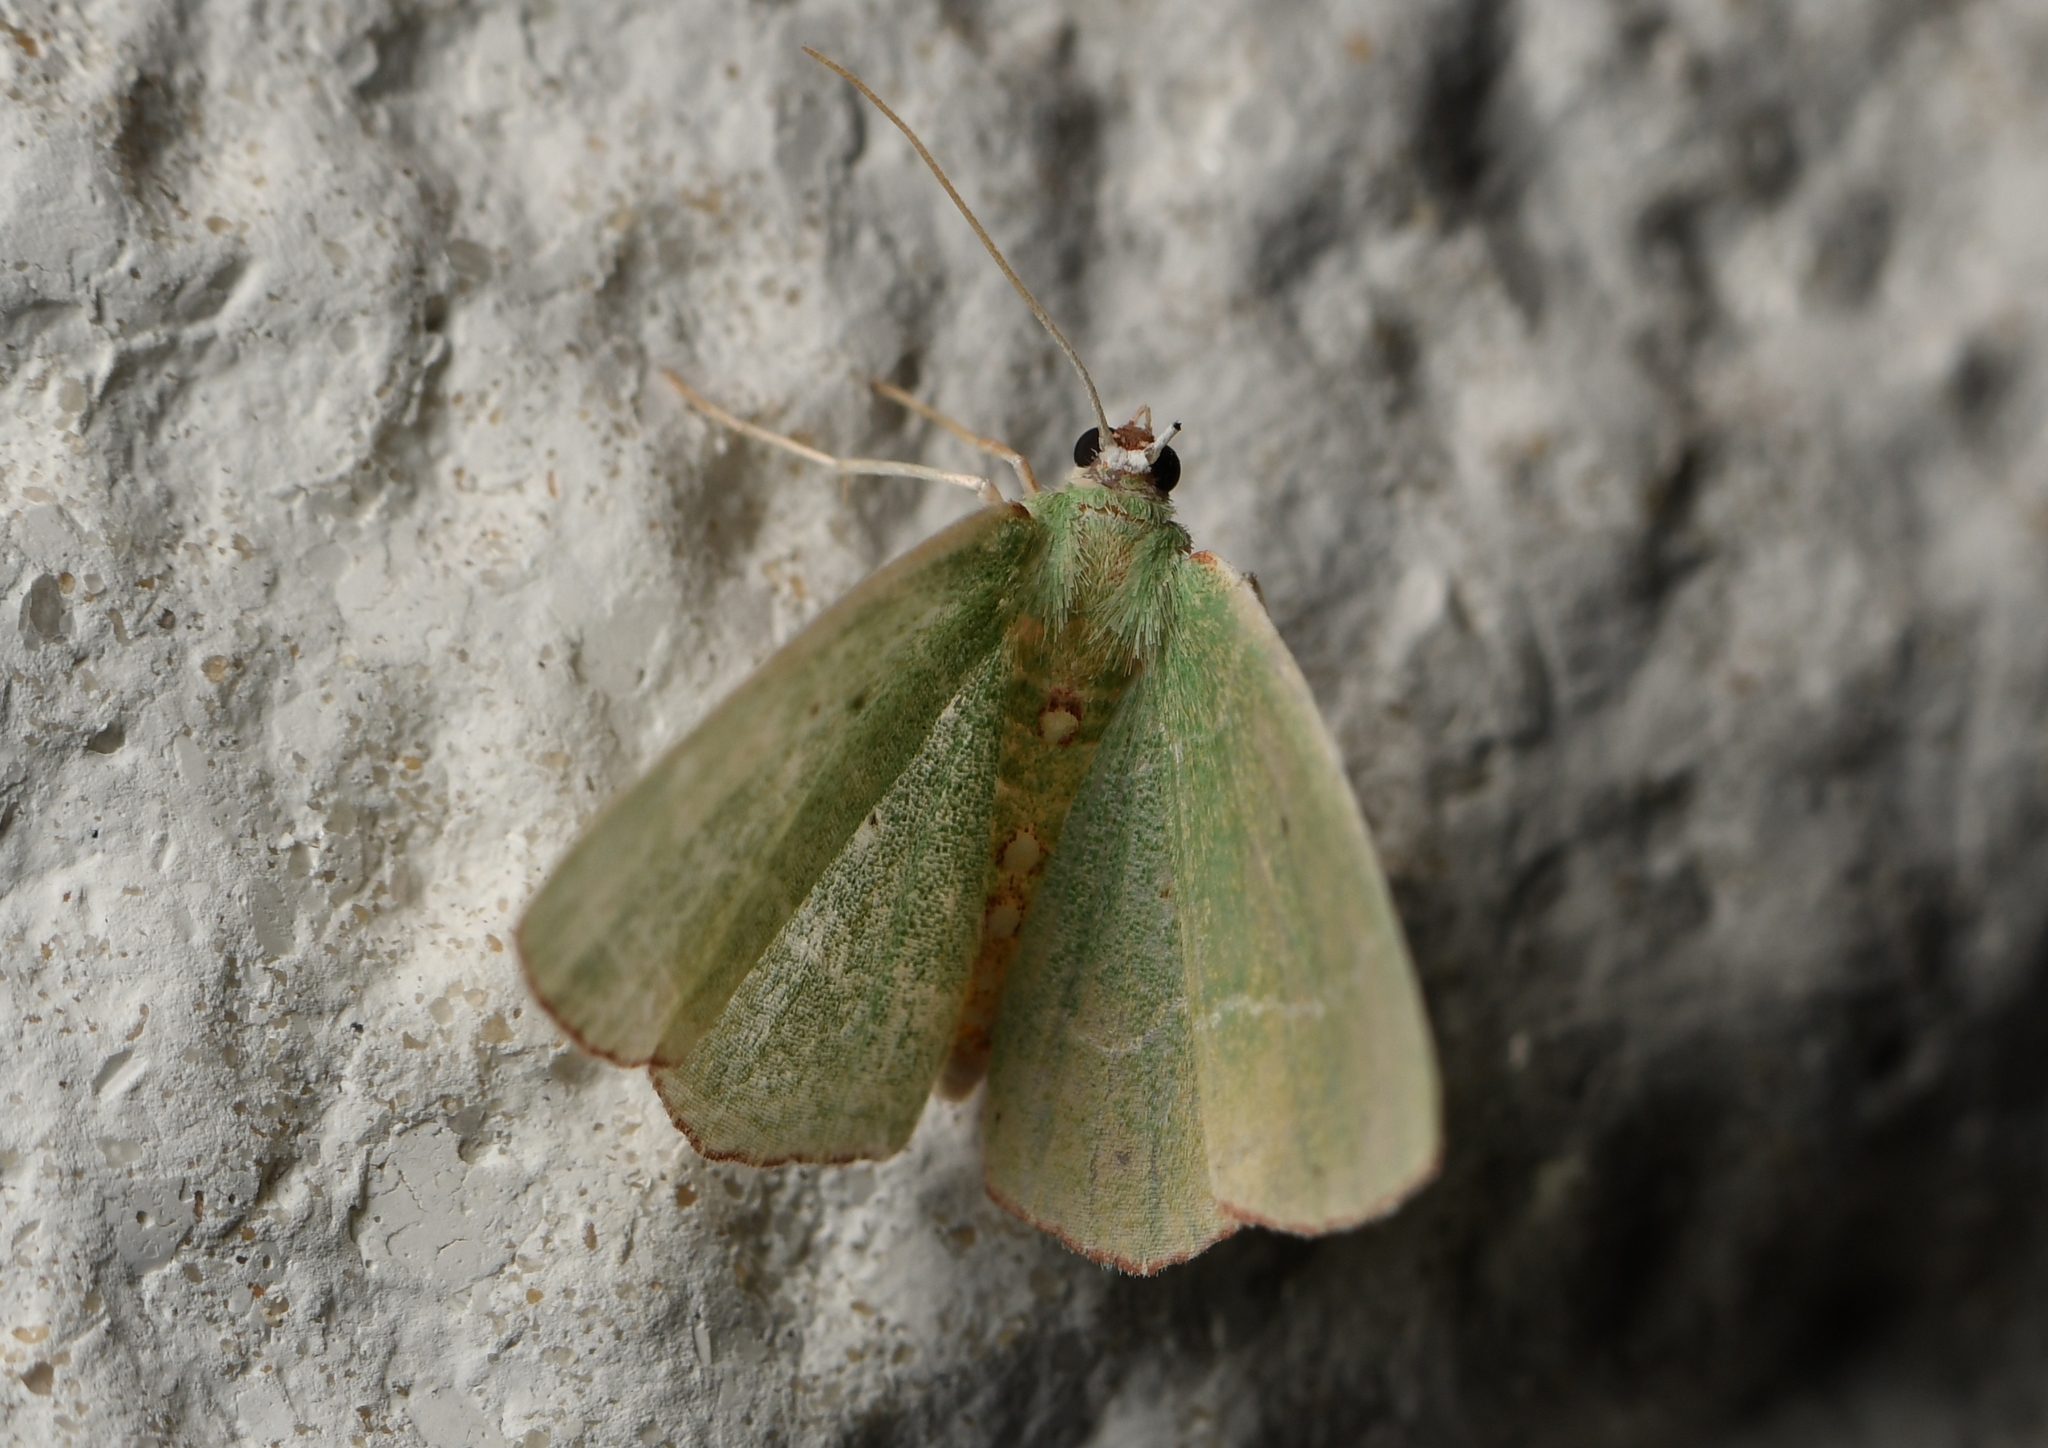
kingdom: Animalia
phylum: Arthropoda
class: Insecta
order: Lepidoptera
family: Geometridae
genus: Nemoria
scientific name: Nemoria lixaria
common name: Red-bordered emerald
